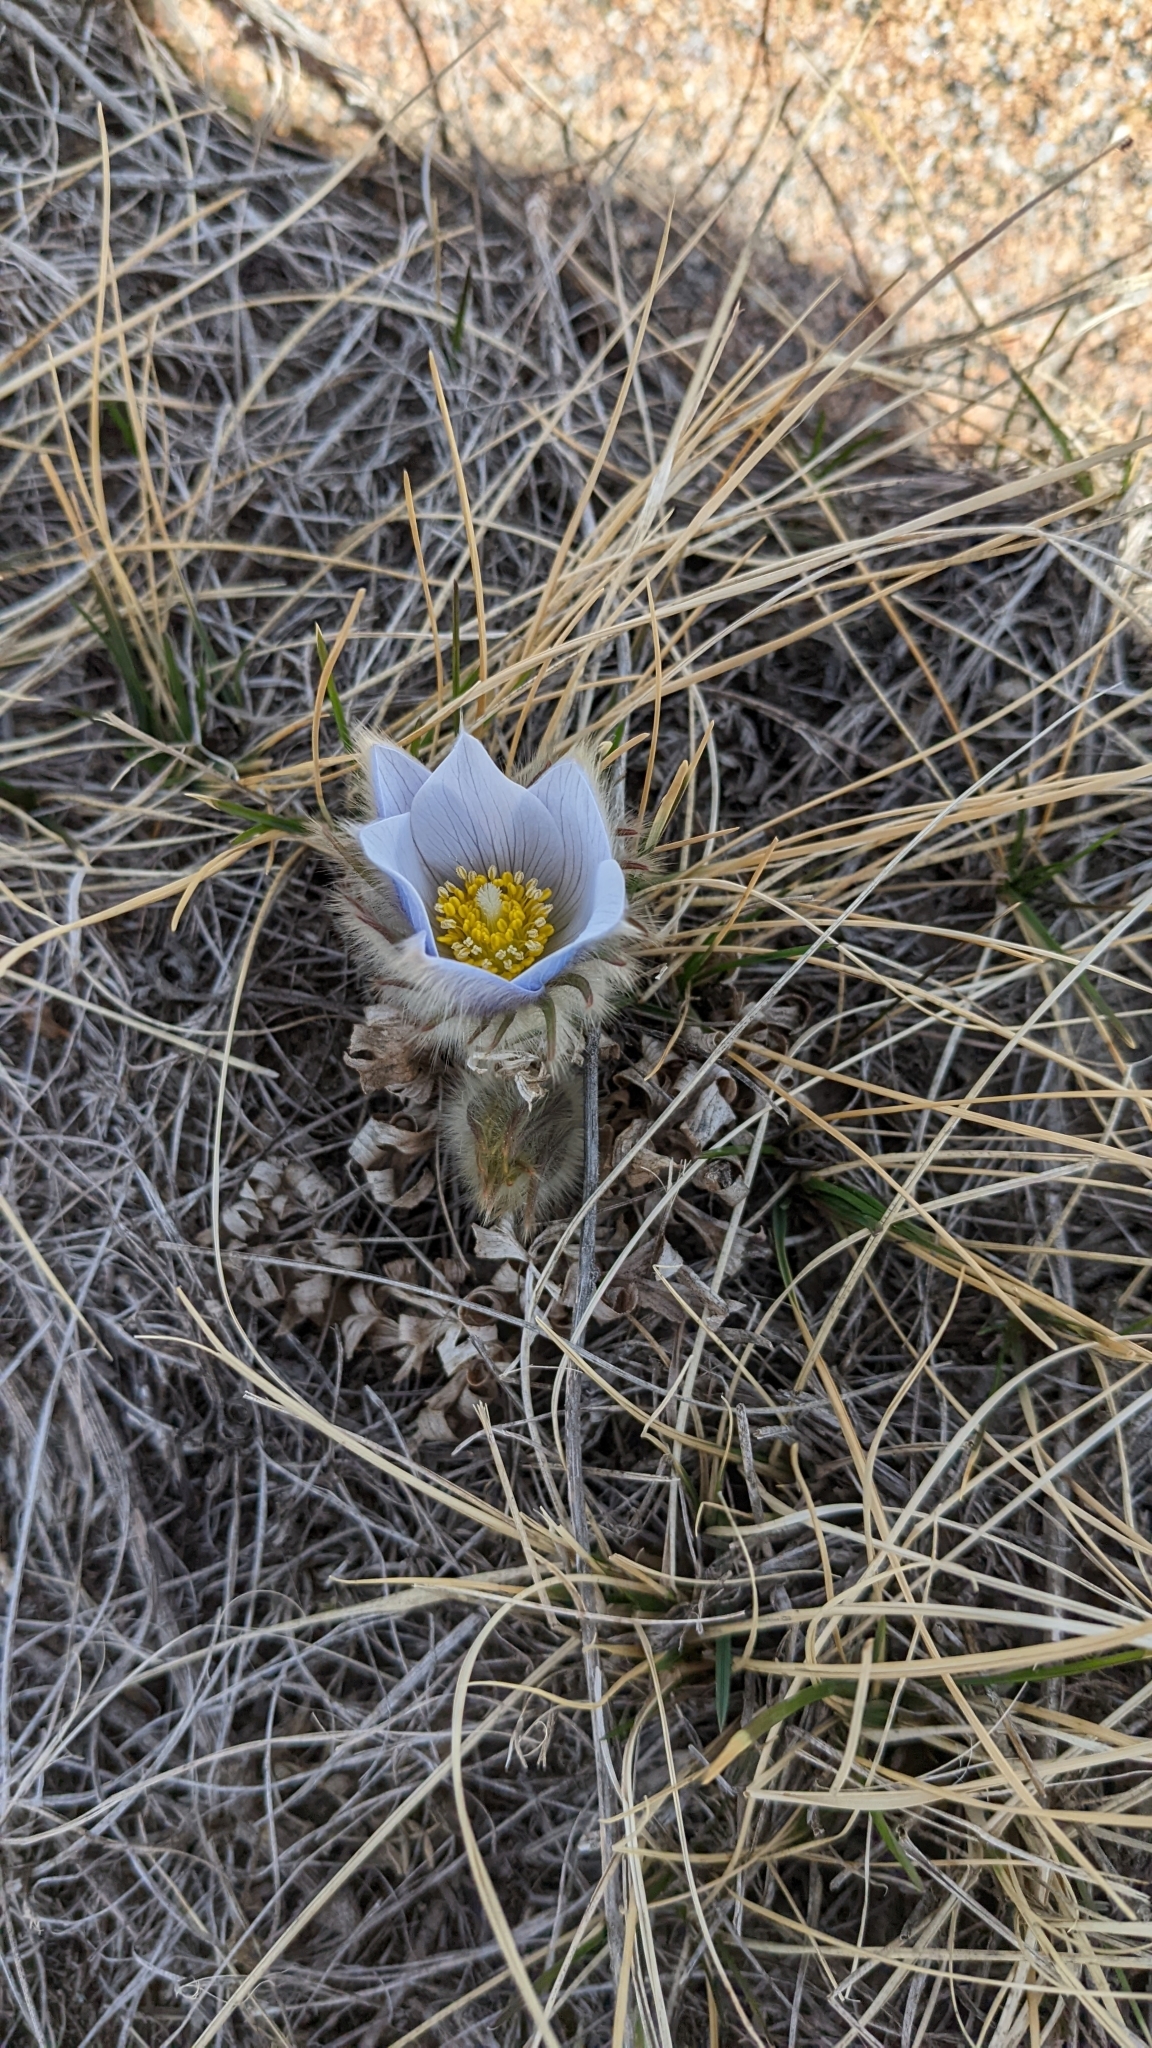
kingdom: Plantae
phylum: Tracheophyta
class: Magnoliopsida
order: Ranunculales
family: Ranunculaceae
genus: Pulsatilla
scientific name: Pulsatilla nuttalliana
